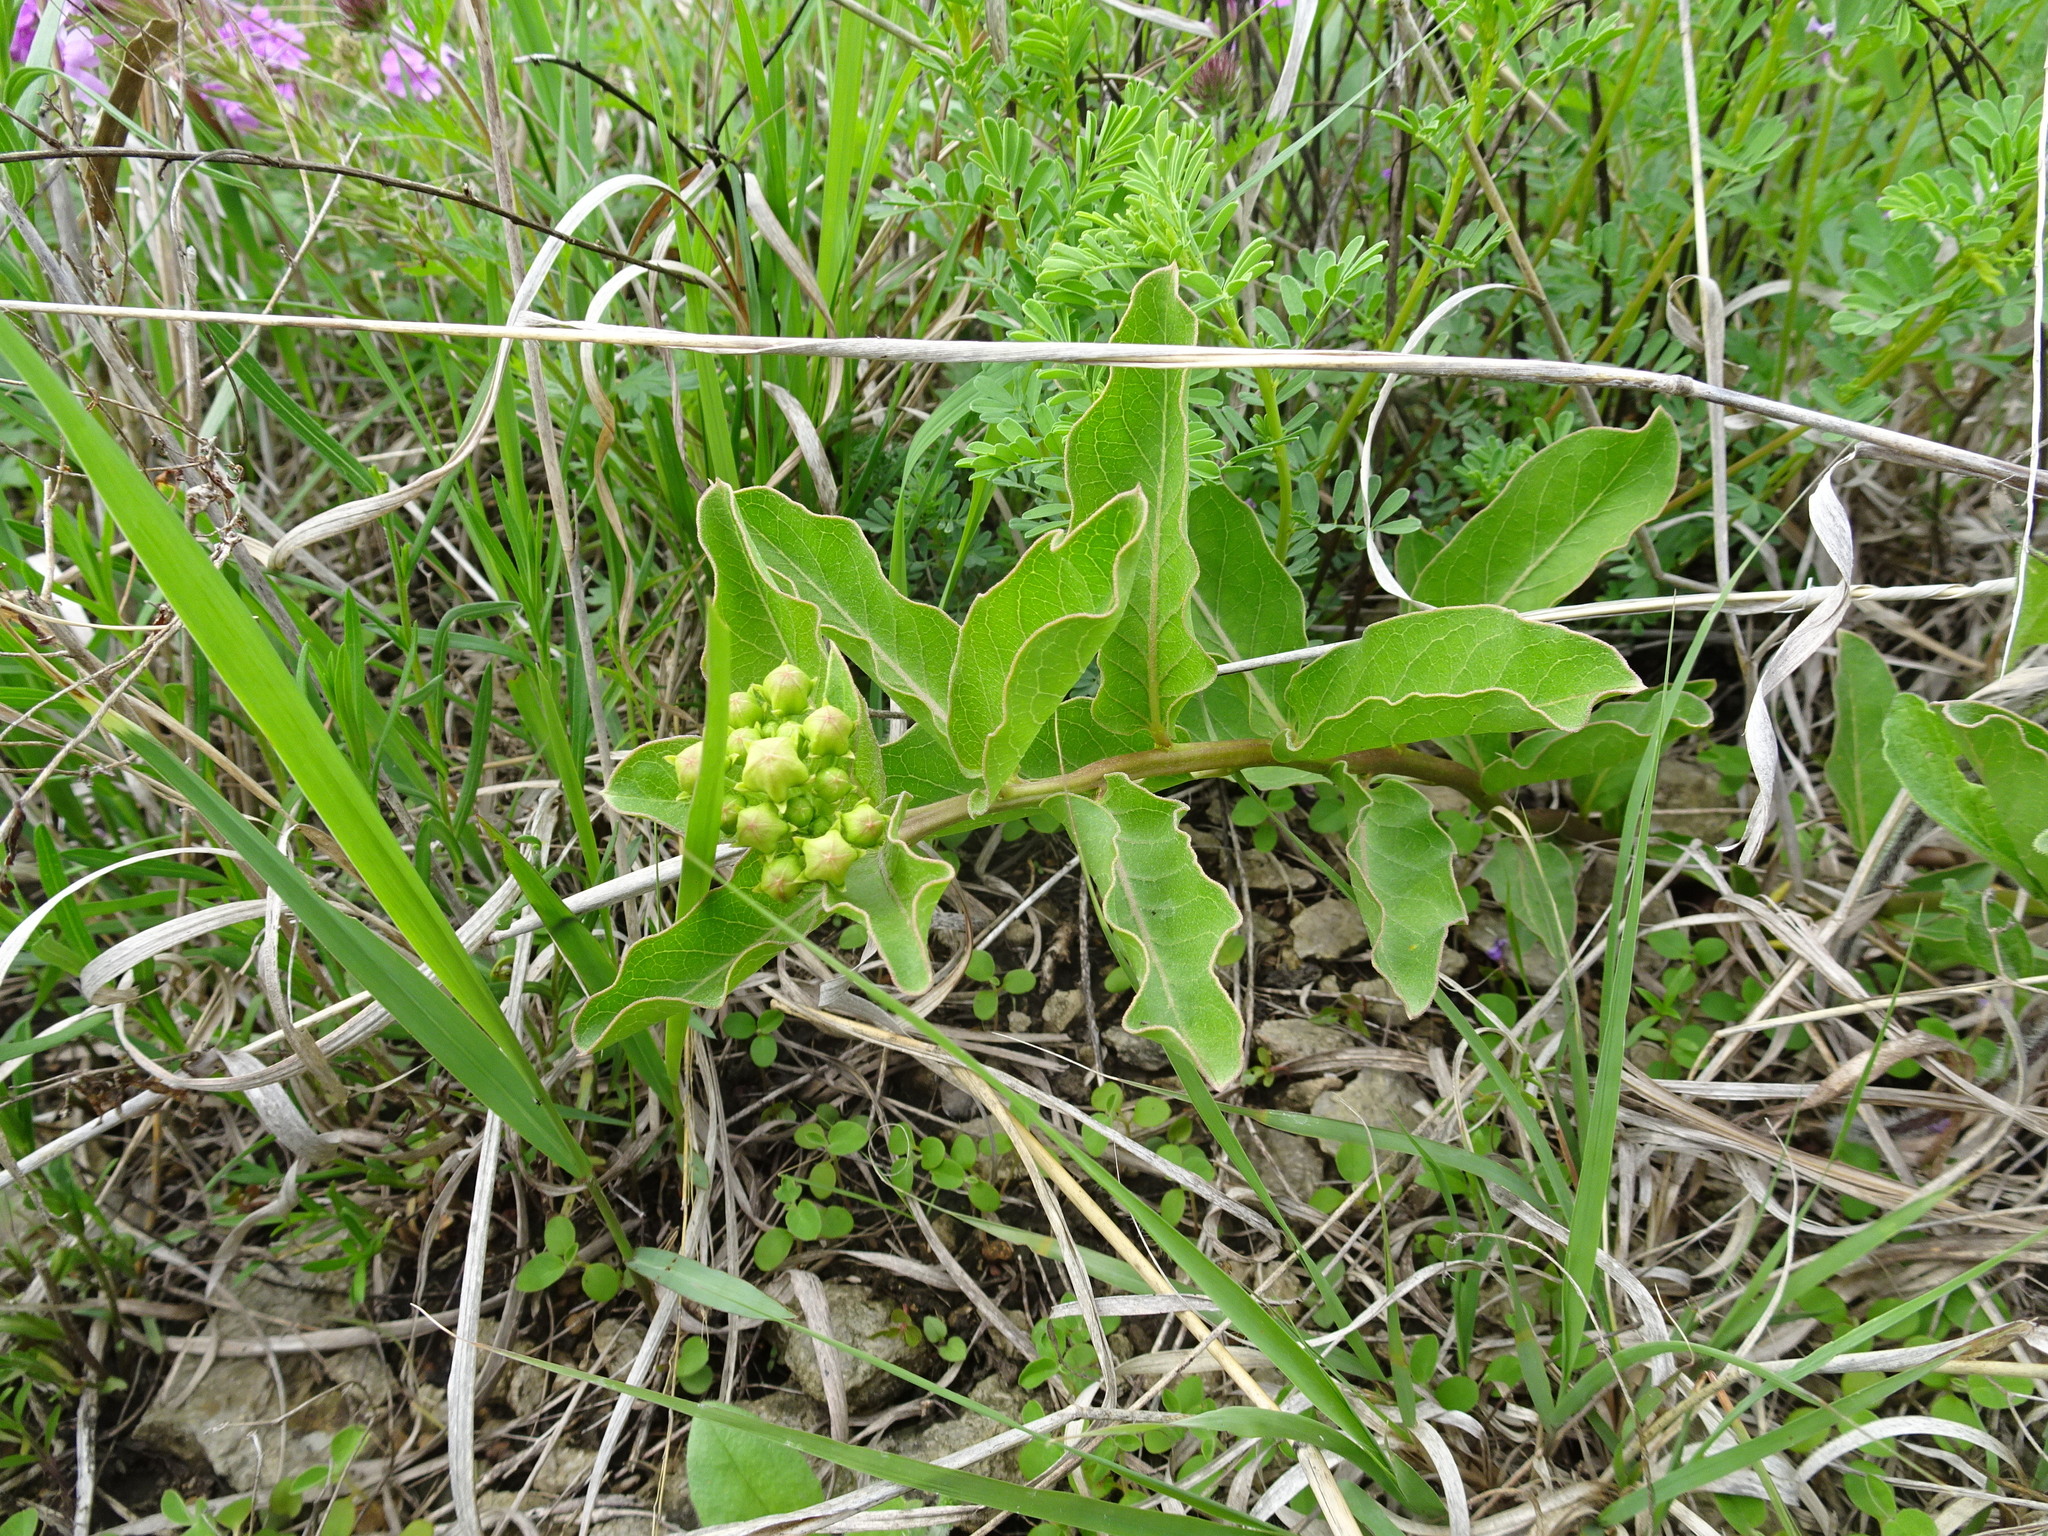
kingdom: Plantae
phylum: Tracheophyta
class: Magnoliopsida
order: Gentianales
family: Apocynaceae
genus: Asclepias
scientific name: Asclepias viridis
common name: Antelope-horns
